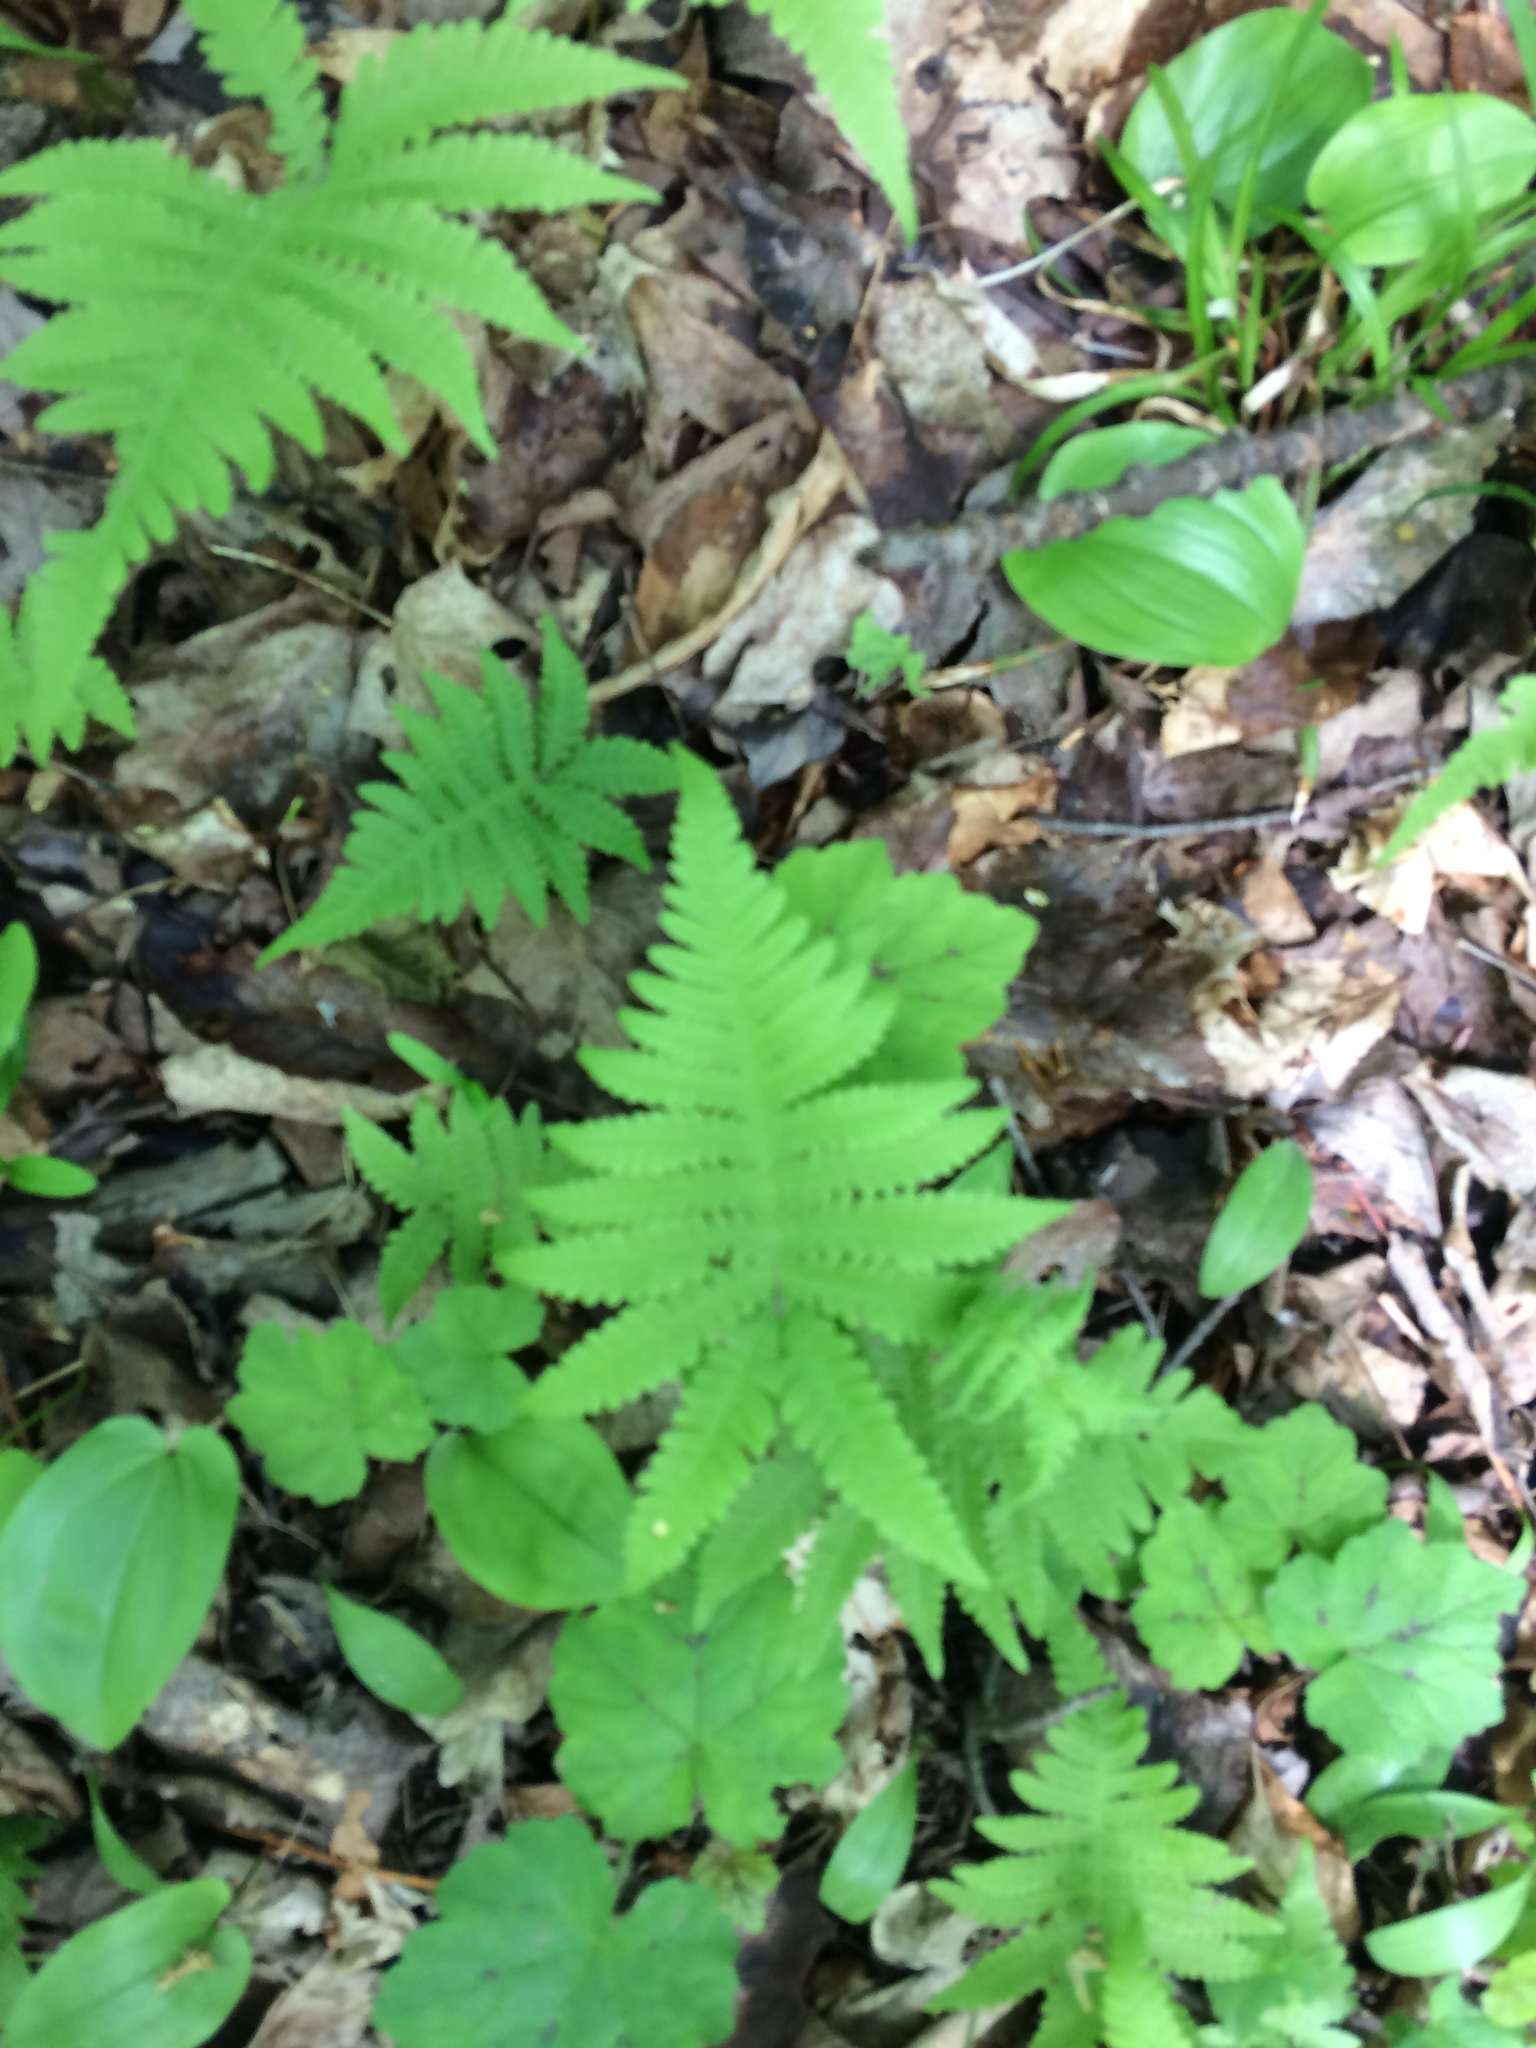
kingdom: Plantae
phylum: Tracheophyta
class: Polypodiopsida
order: Polypodiales
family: Thelypteridaceae
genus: Phegopteris
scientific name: Phegopteris connectilis
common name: Beech fern
